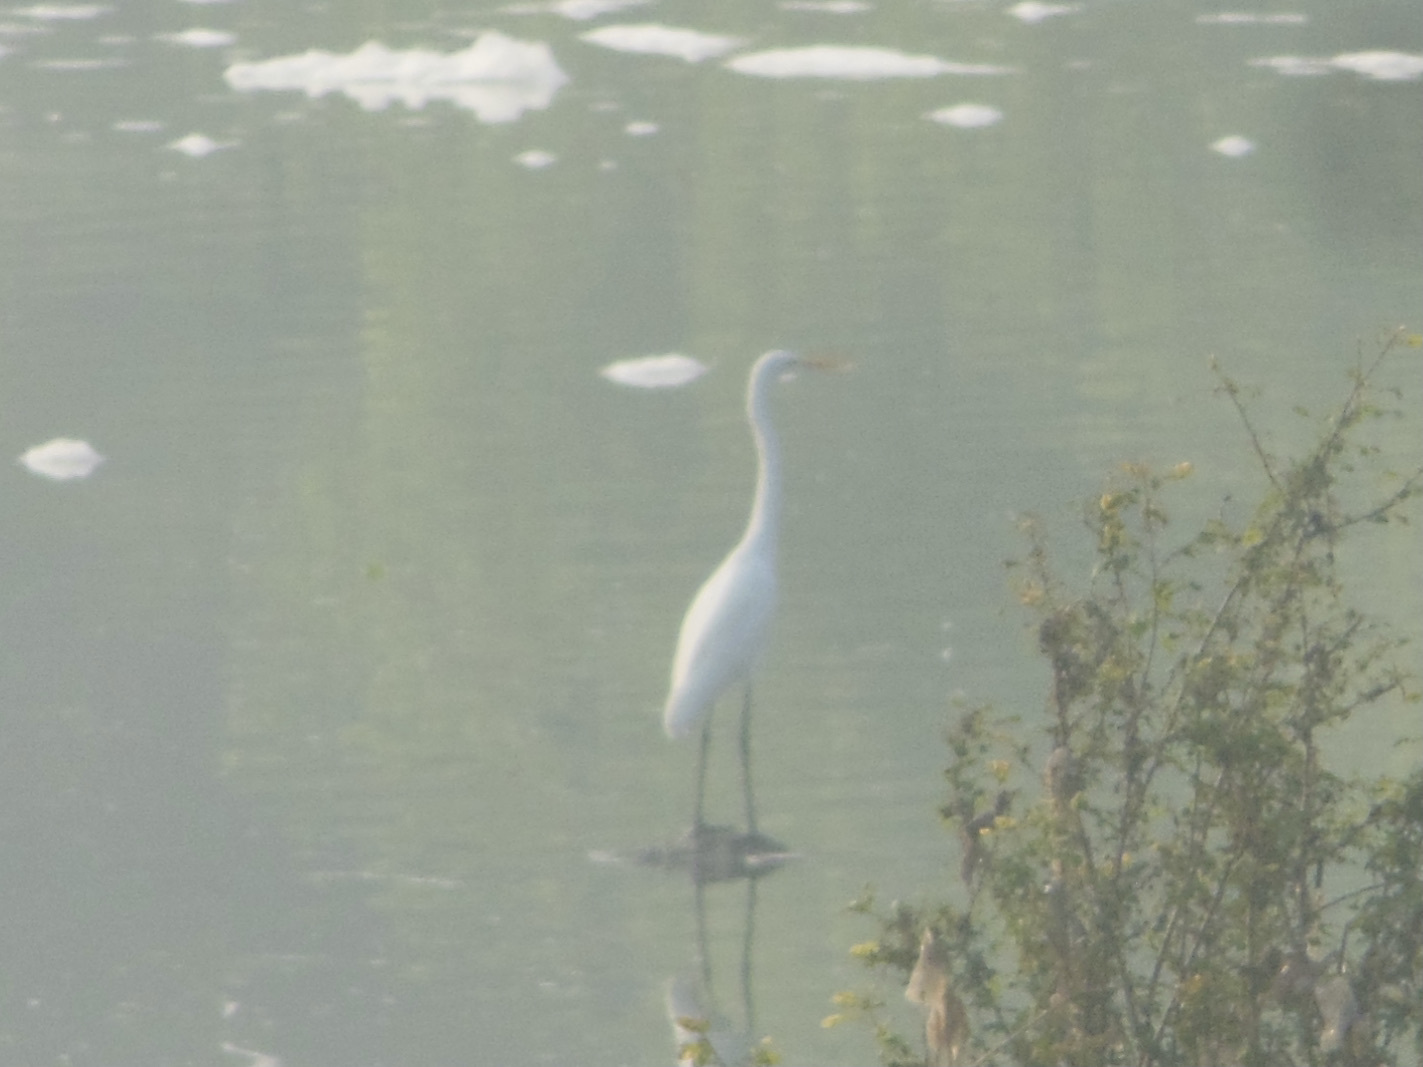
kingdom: Animalia
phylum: Chordata
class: Aves
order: Pelecaniformes
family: Ardeidae
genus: Egretta
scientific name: Egretta intermedia
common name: Intermediate egret
